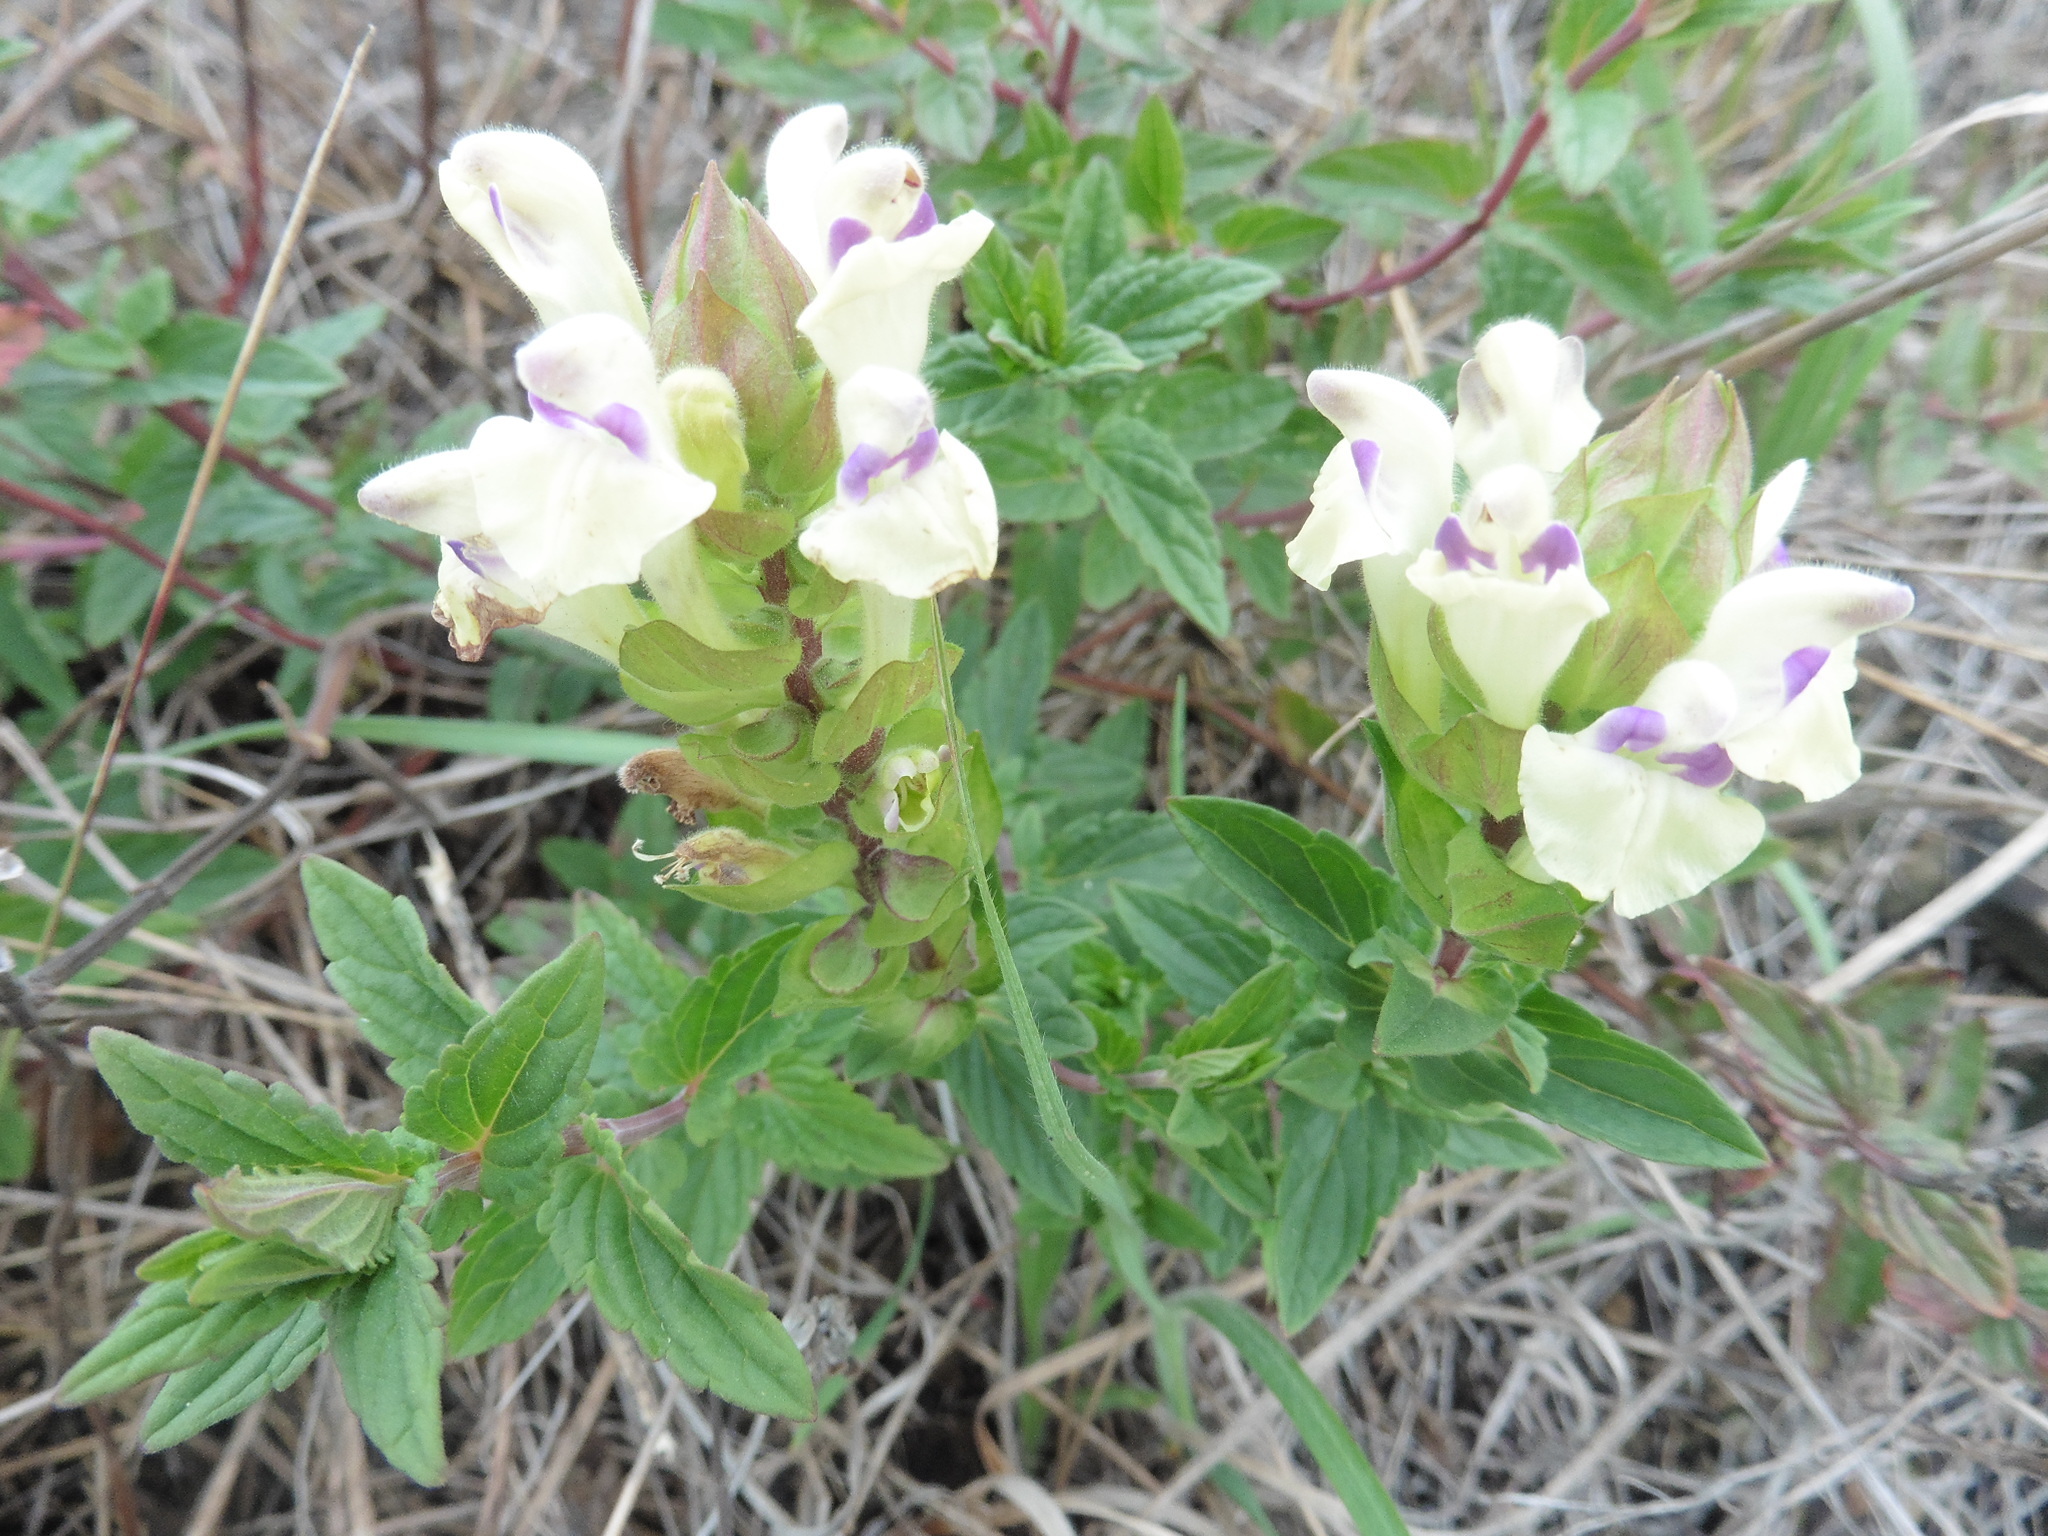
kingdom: Plantae
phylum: Tracheophyta
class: Magnoliopsida
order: Lamiales
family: Lamiaceae
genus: Scutellaria
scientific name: Scutellaria supina
